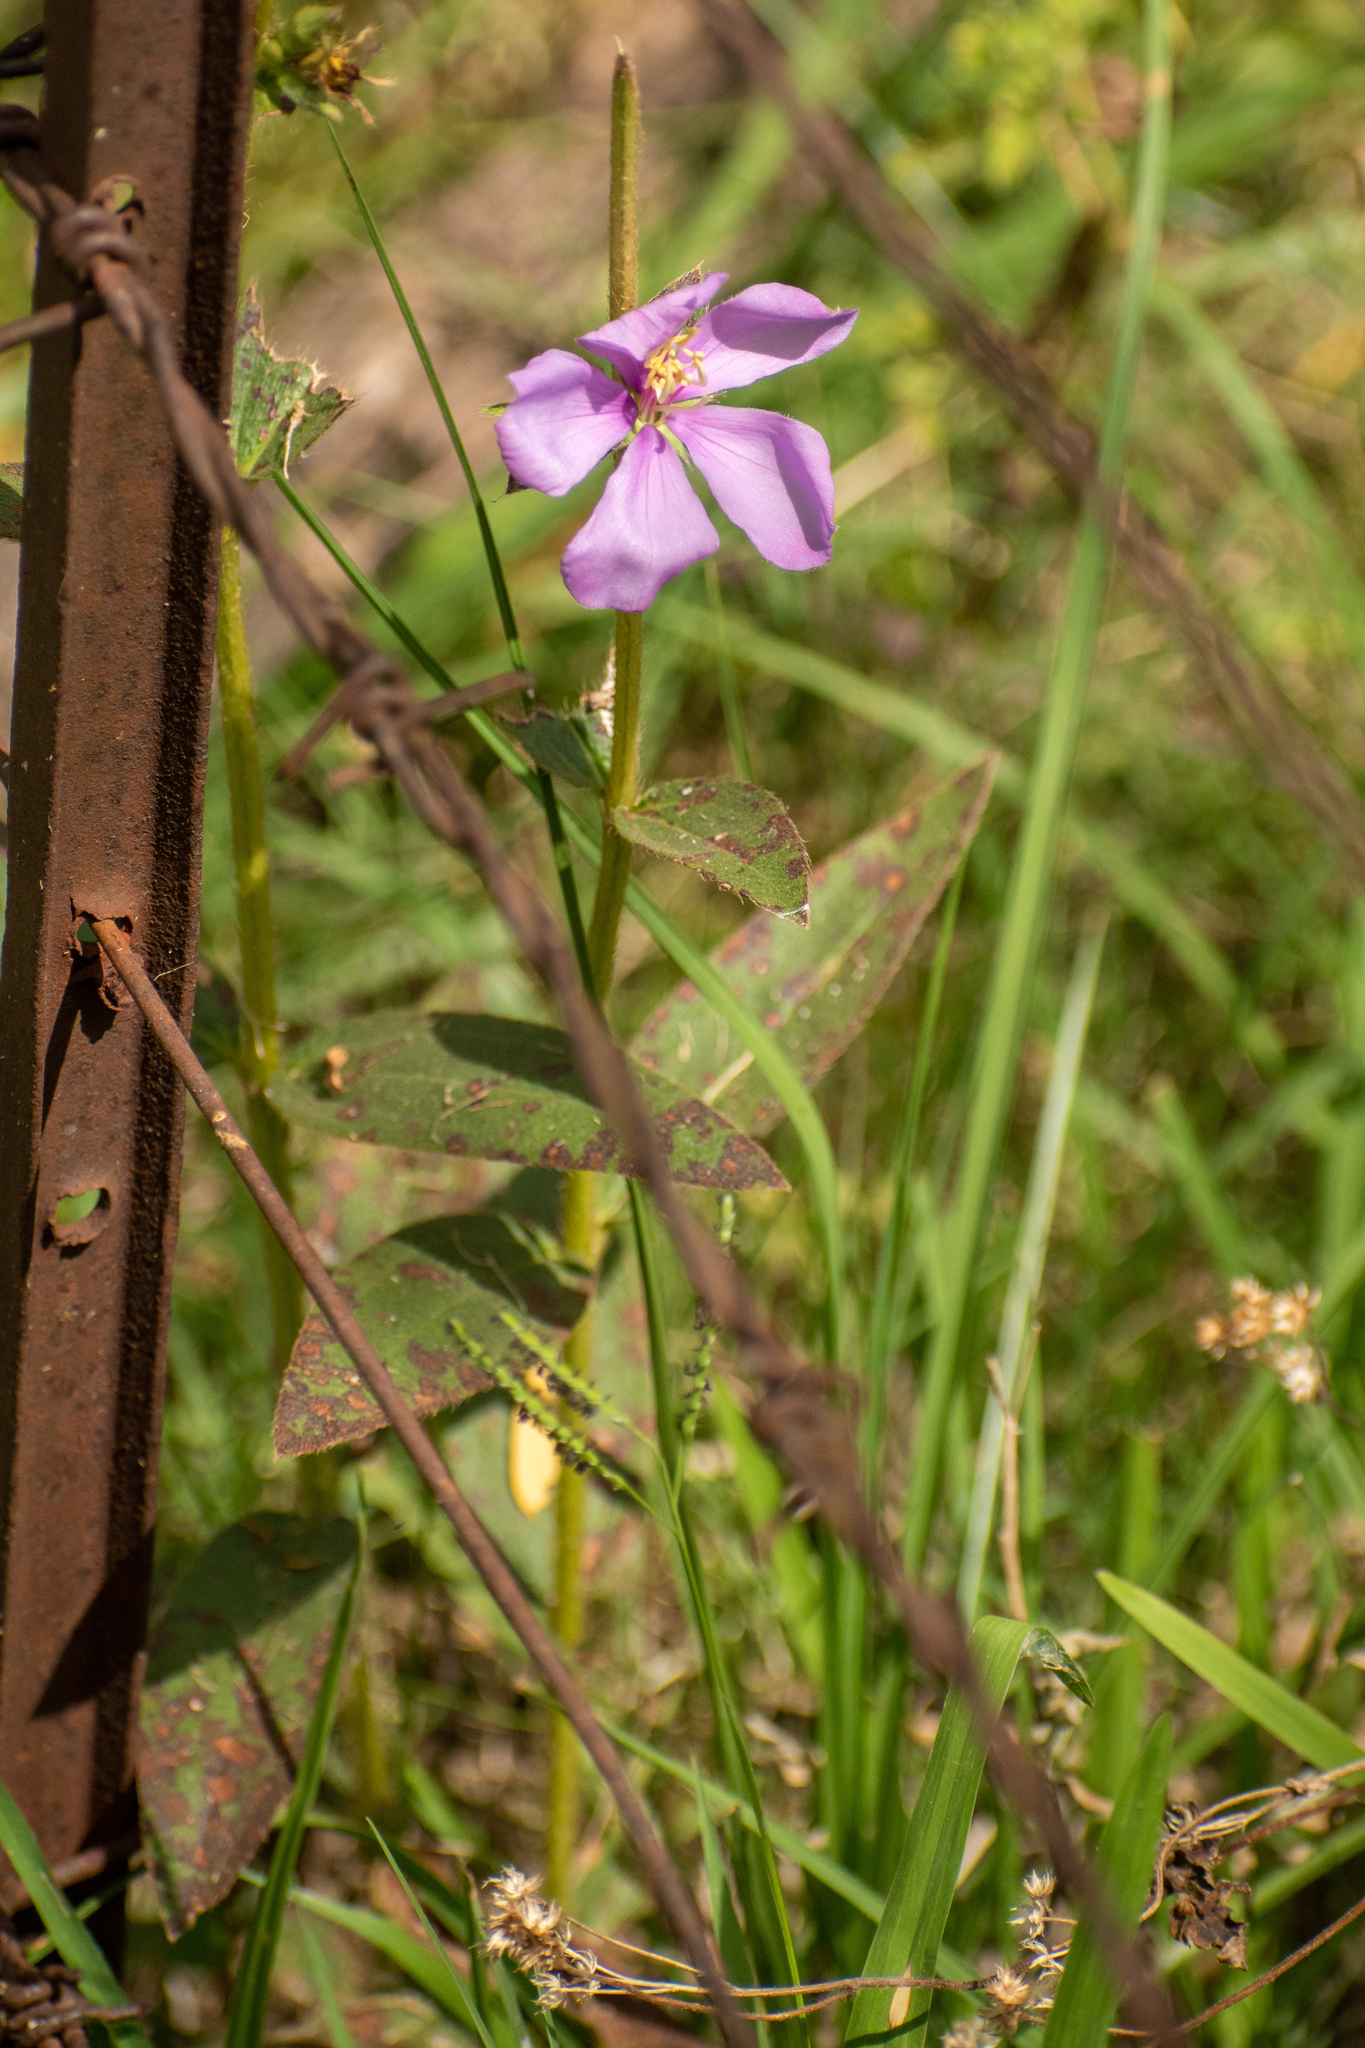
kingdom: Plantae
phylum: Tracheophyta
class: Magnoliopsida
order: Myrtales
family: Melastomataceae
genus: Chaetogastra
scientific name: Chaetogastra gracilis
